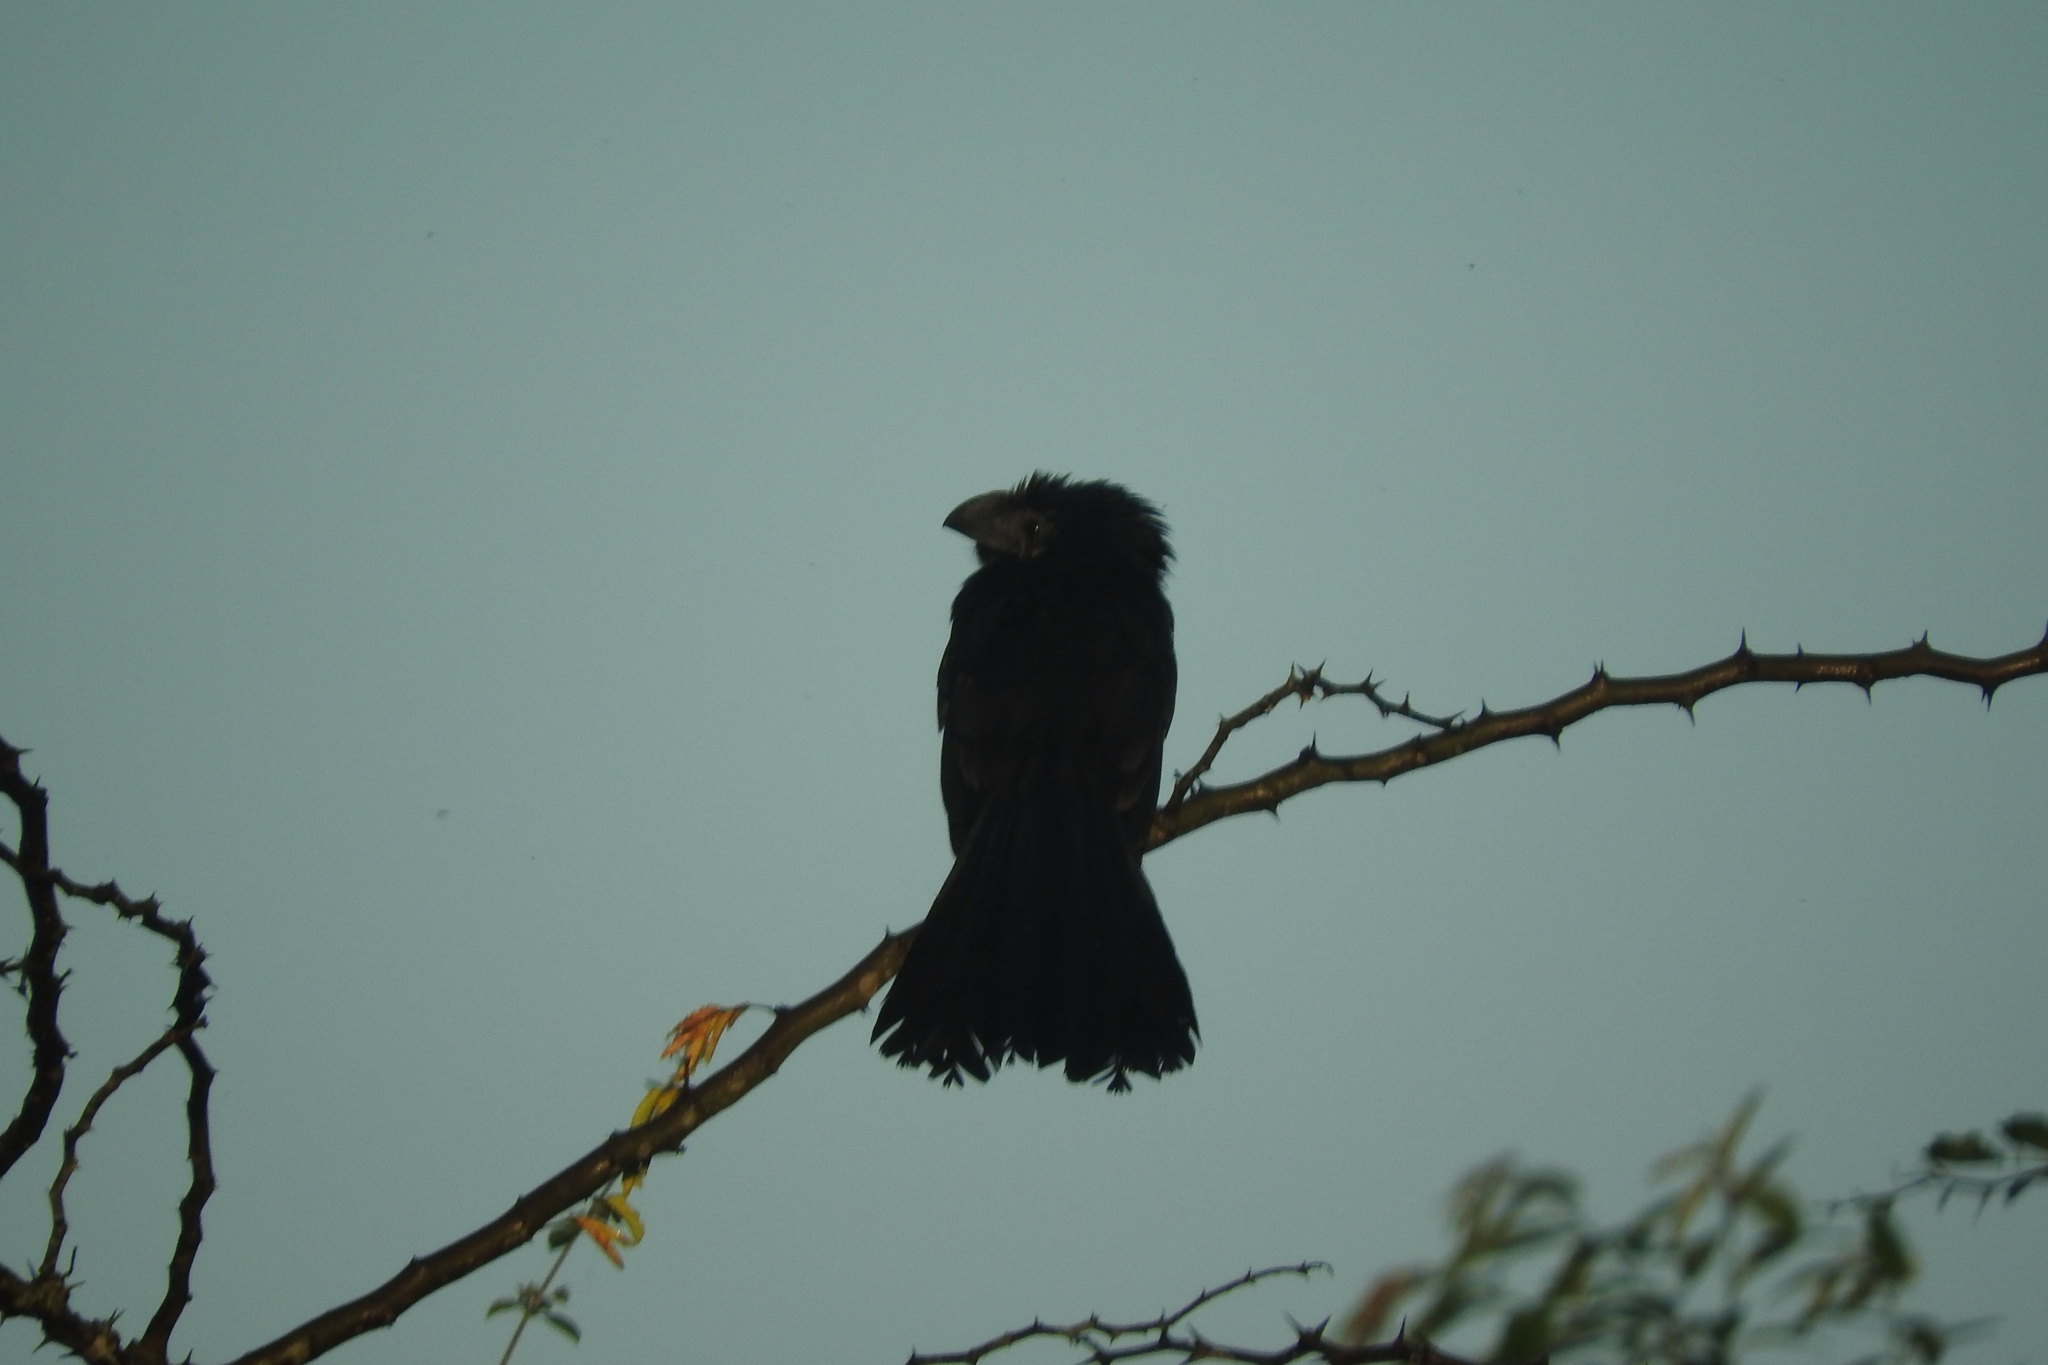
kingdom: Animalia
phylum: Chordata
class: Aves
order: Cuculiformes
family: Cuculidae
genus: Crotophaga
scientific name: Crotophaga sulcirostris
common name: Groove-billed ani
